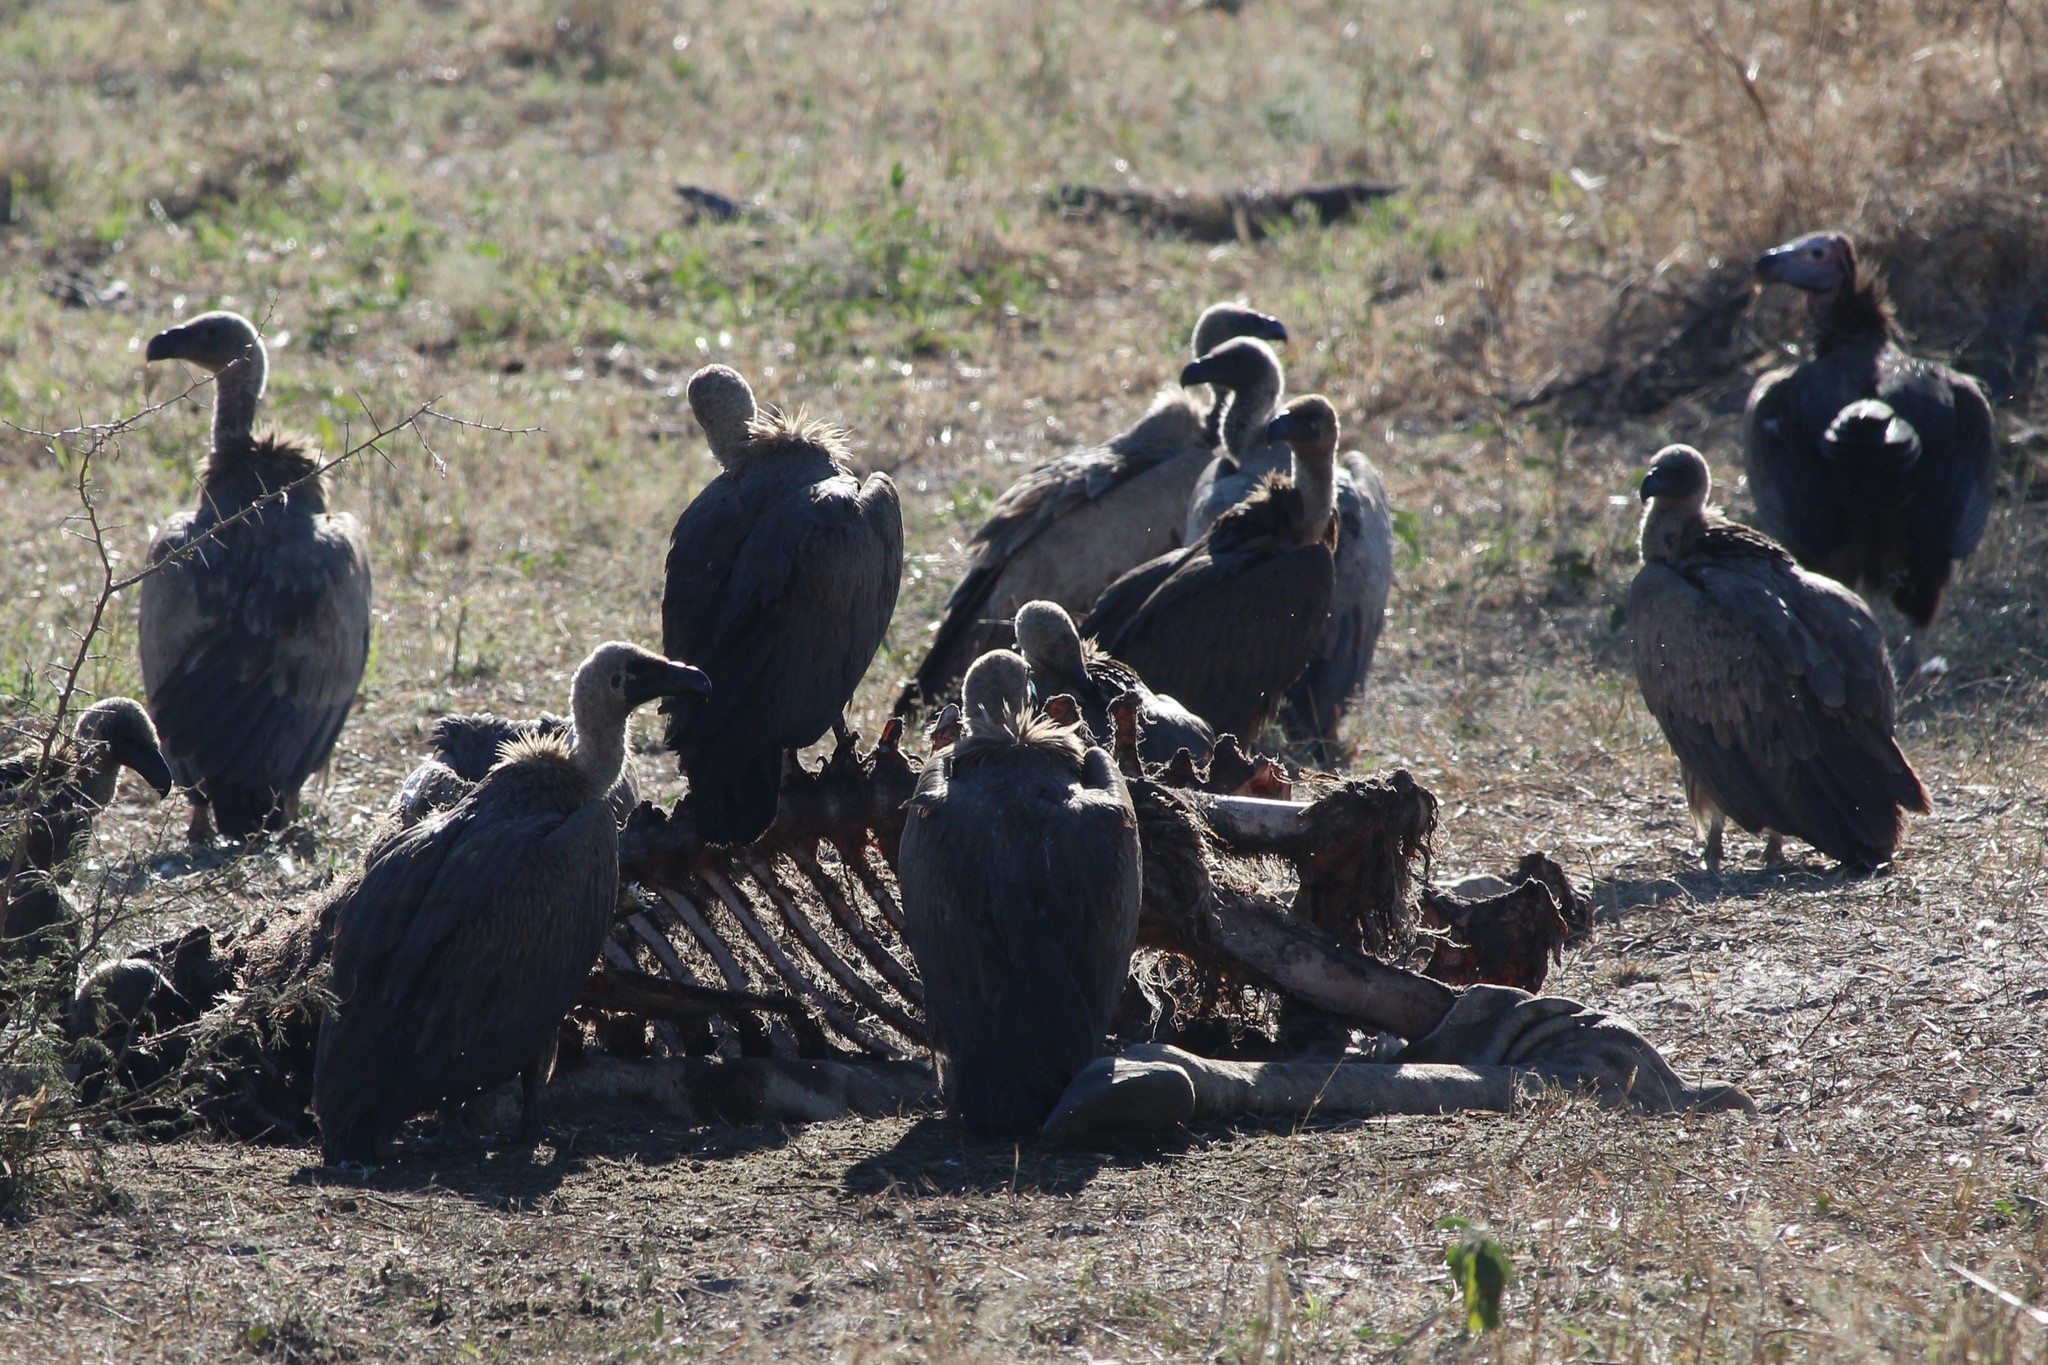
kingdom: Animalia
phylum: Chordata
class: Aves
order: Accipitriformes
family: Accipitridae
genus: Gyps
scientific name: Gyps africanus
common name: White-backed vulture
